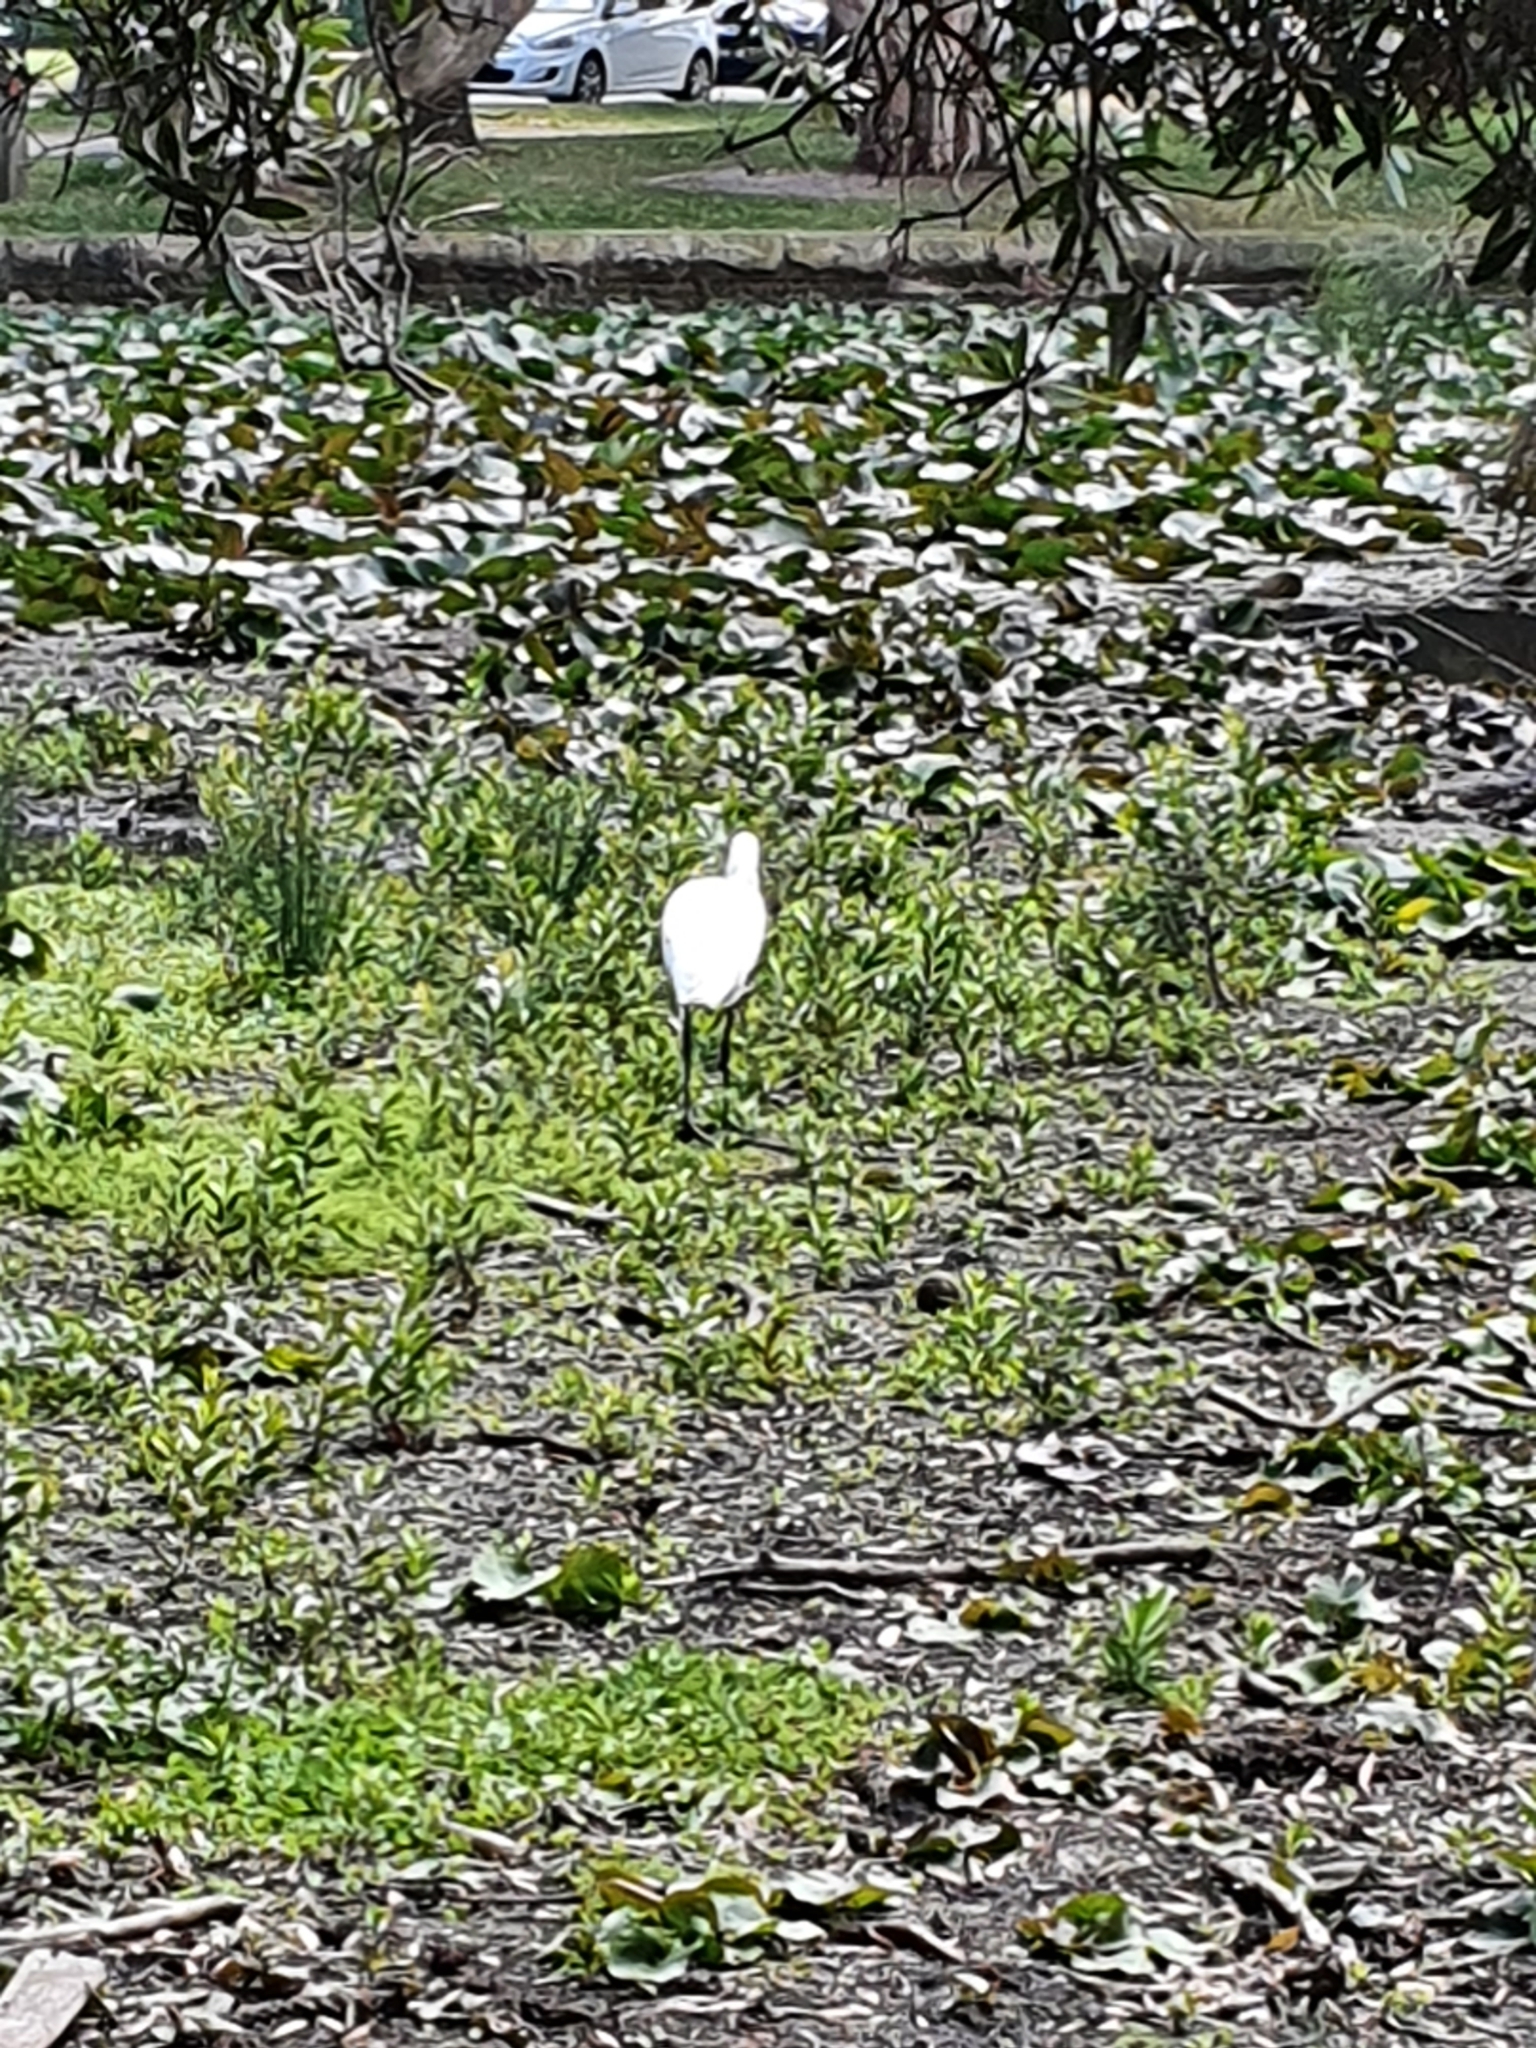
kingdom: Animalia
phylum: Chordata
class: Aves
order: Pelecaniformes
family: Threskiornithidae
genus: Platalea
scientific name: Platalea regia
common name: Royal spoonbill
